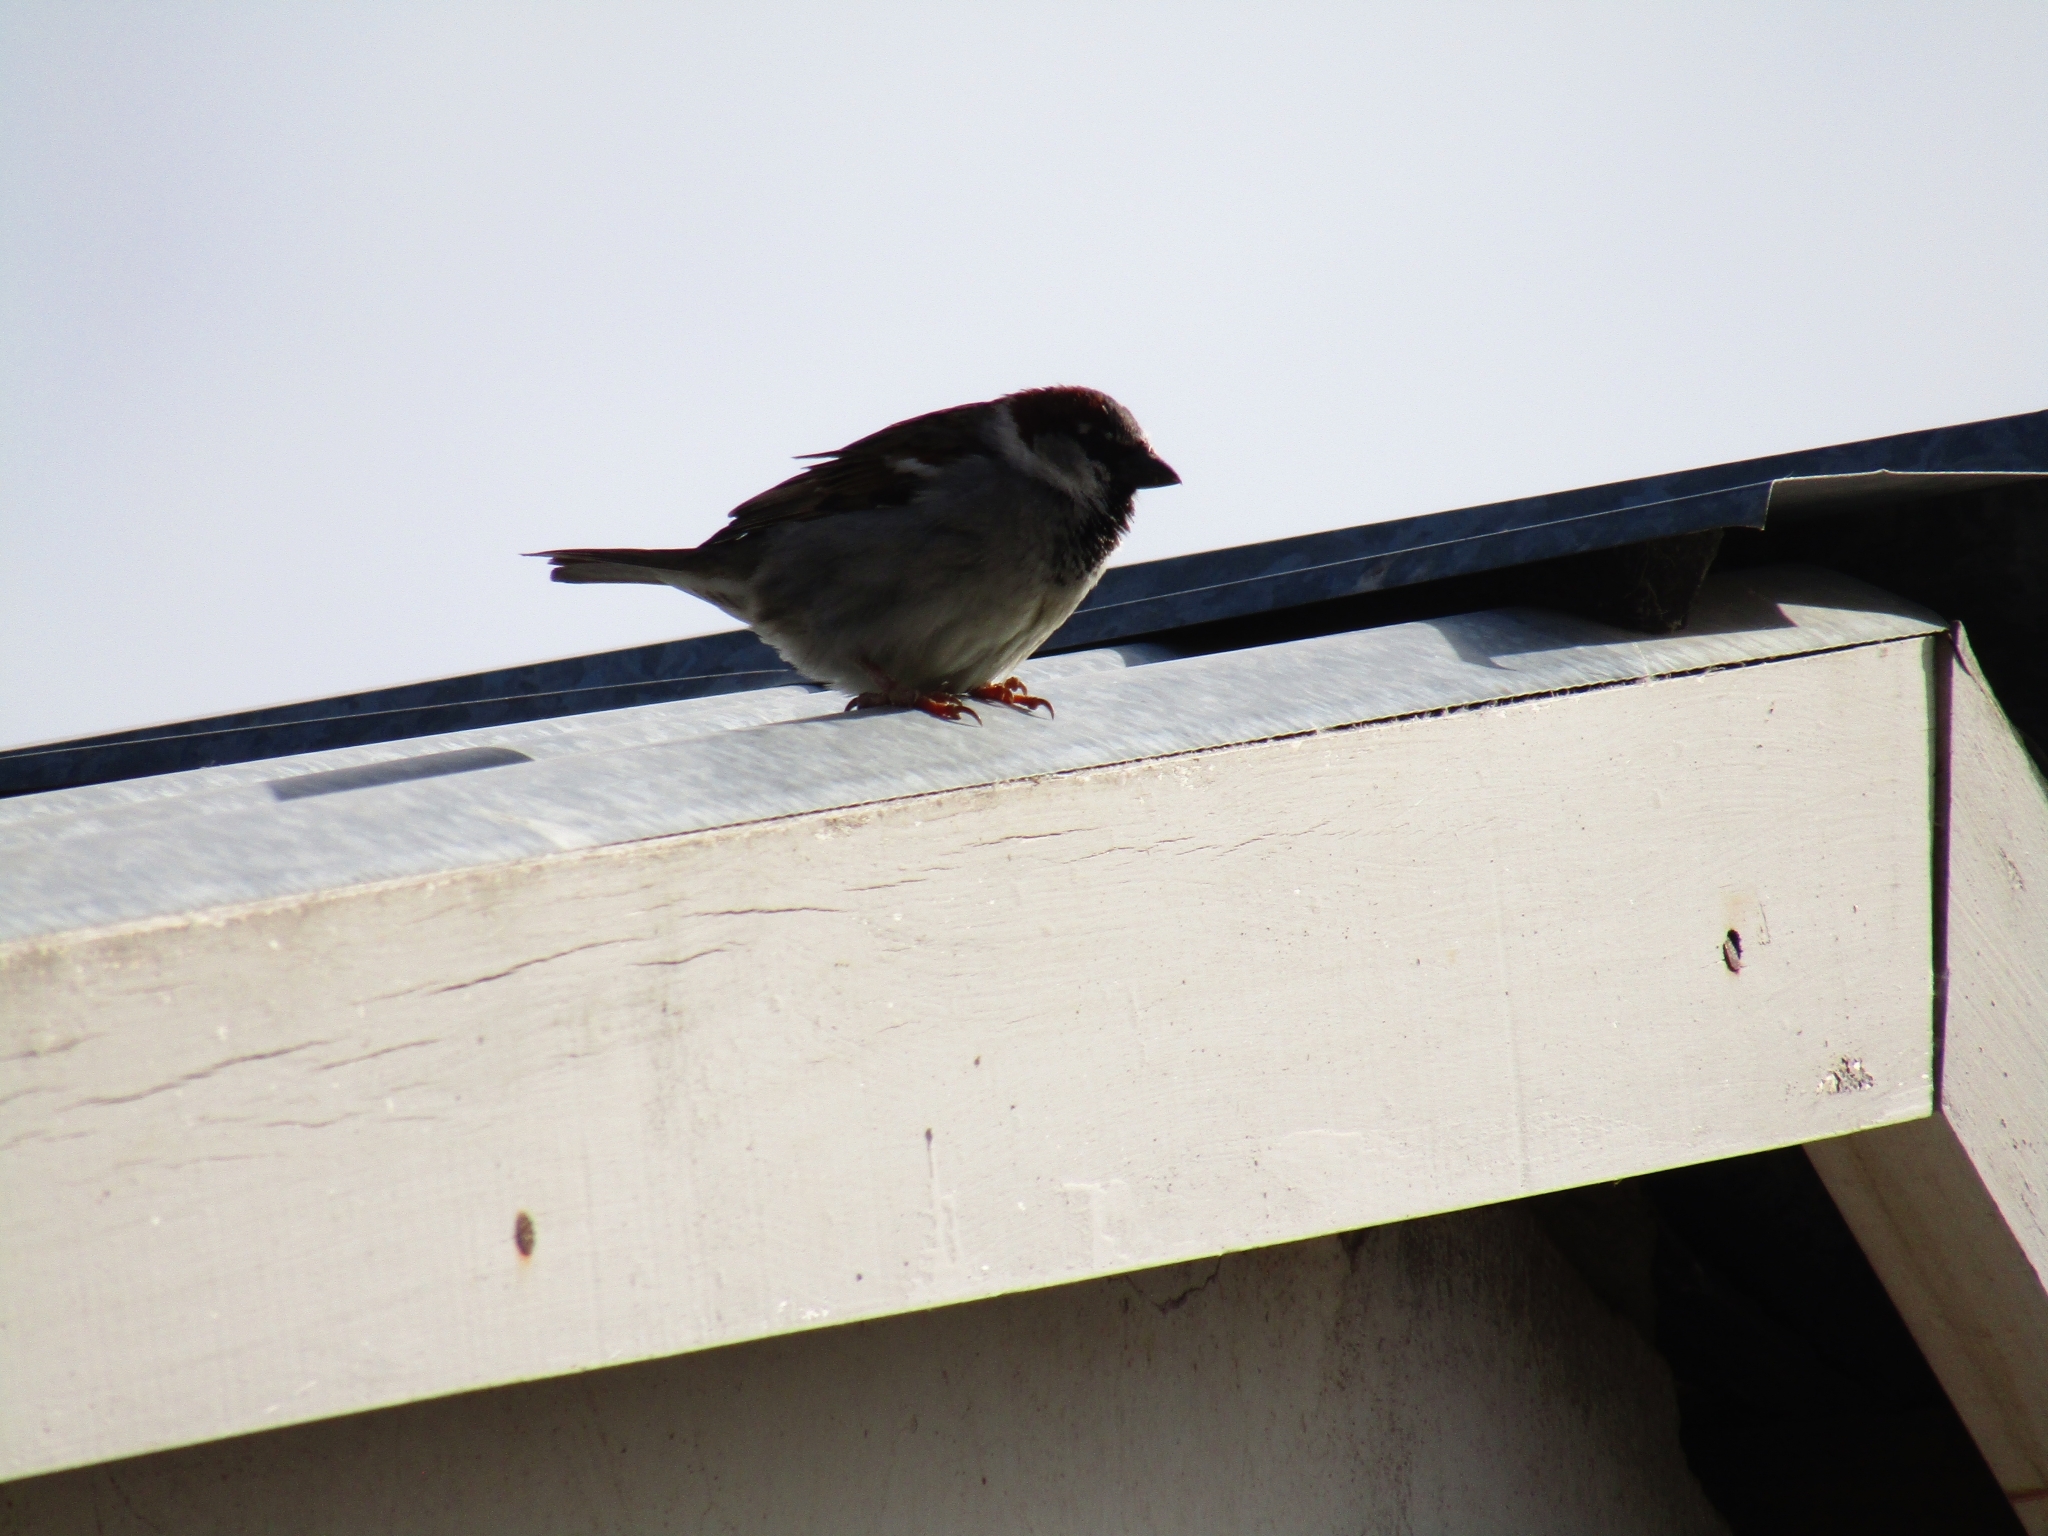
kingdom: Animalia
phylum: Chordata
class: Aves
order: Passeriformes
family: Passeridae
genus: Passer
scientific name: Passer domesticus
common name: House sparrow
